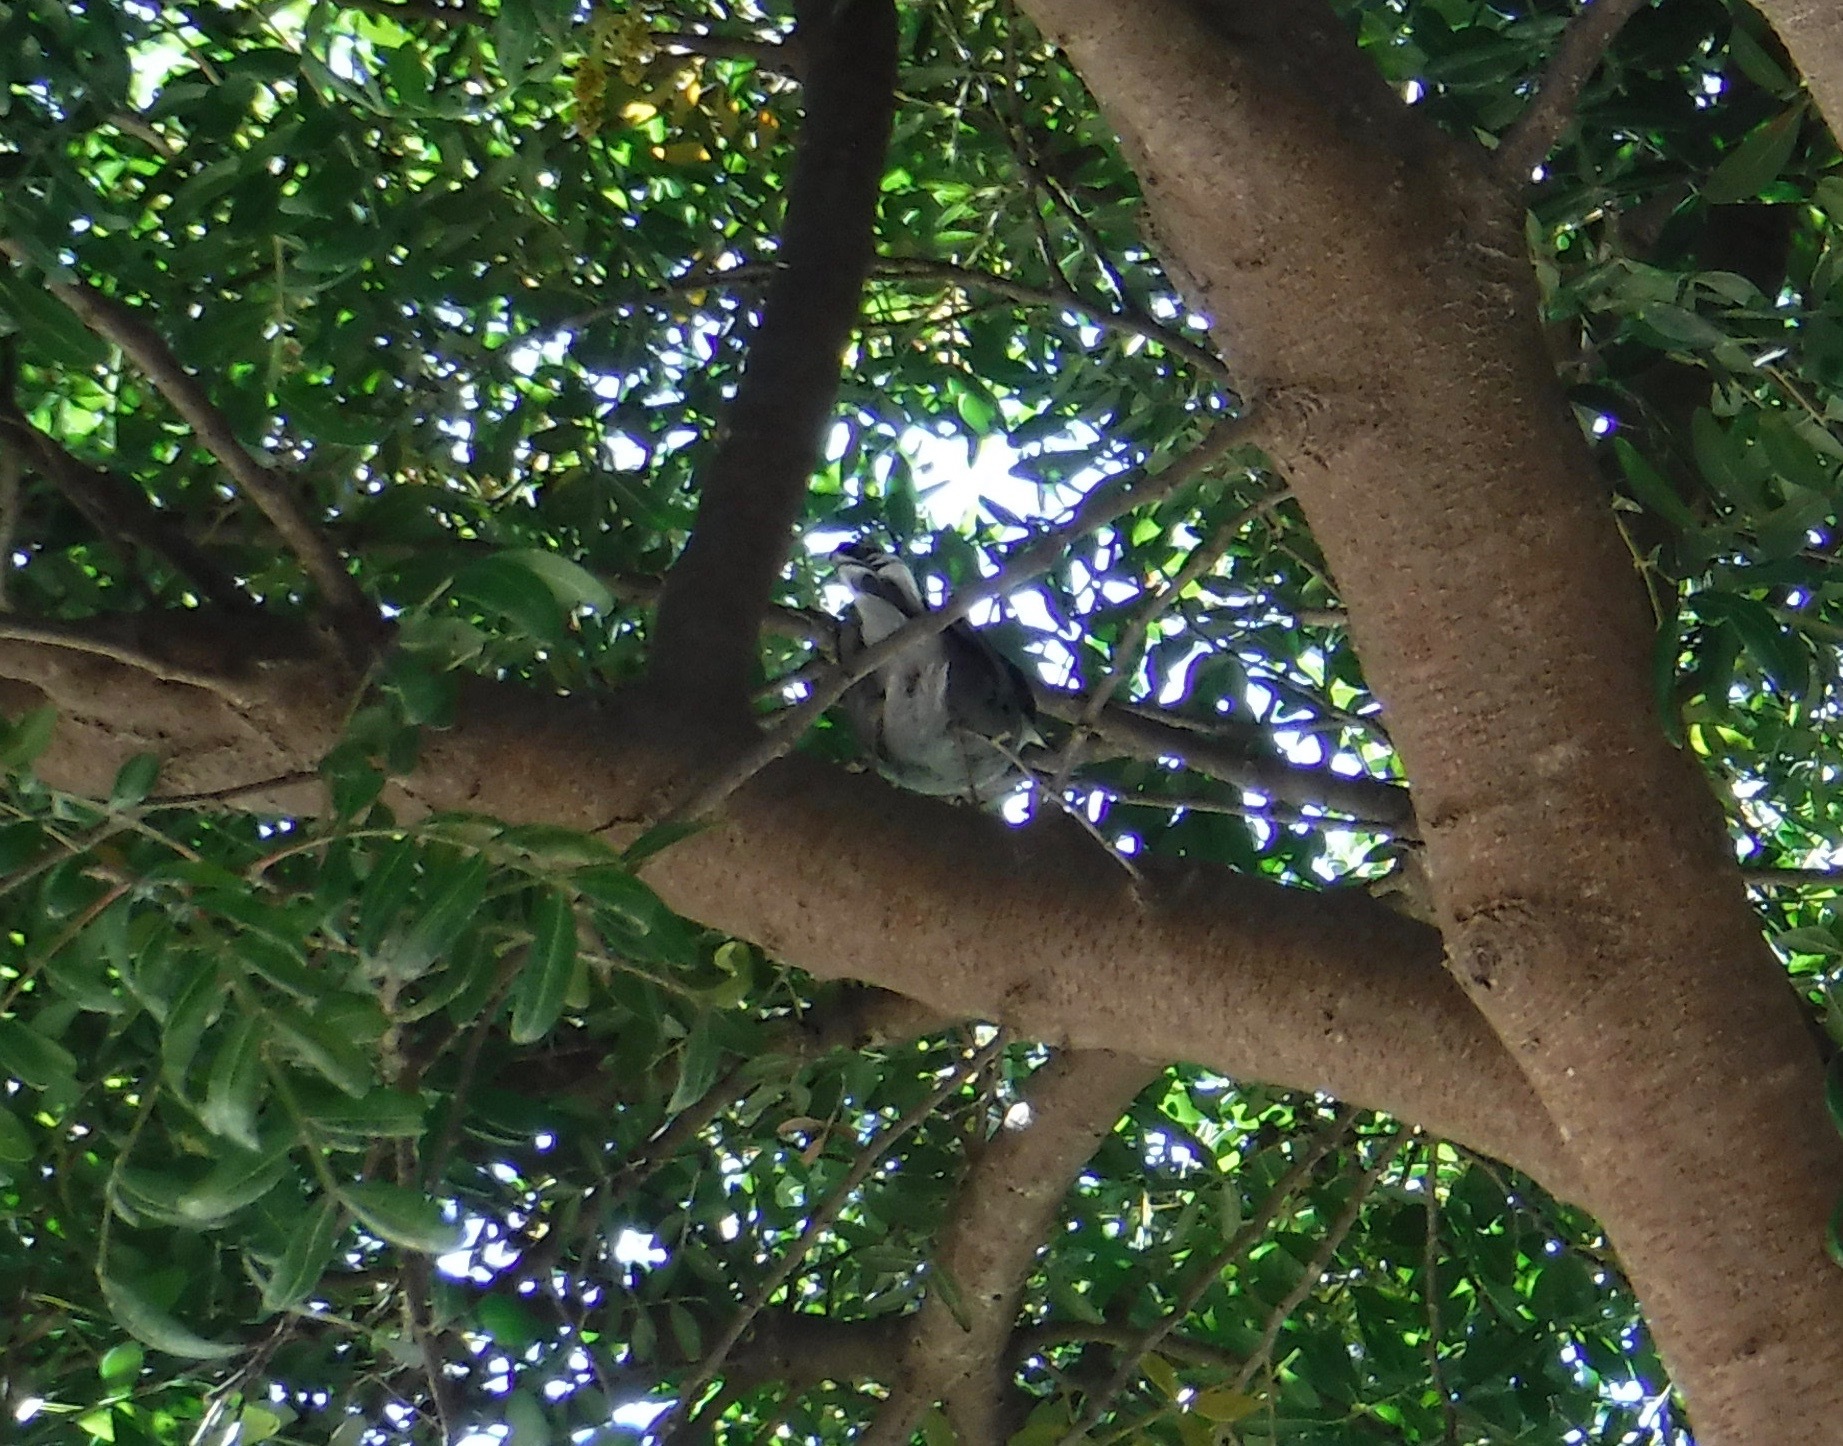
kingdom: Animalia
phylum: Chordata
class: Aves
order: Passeriformes
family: Sylviidae
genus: Curruca
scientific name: Curruca melanocephala
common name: Sardinian warbler
